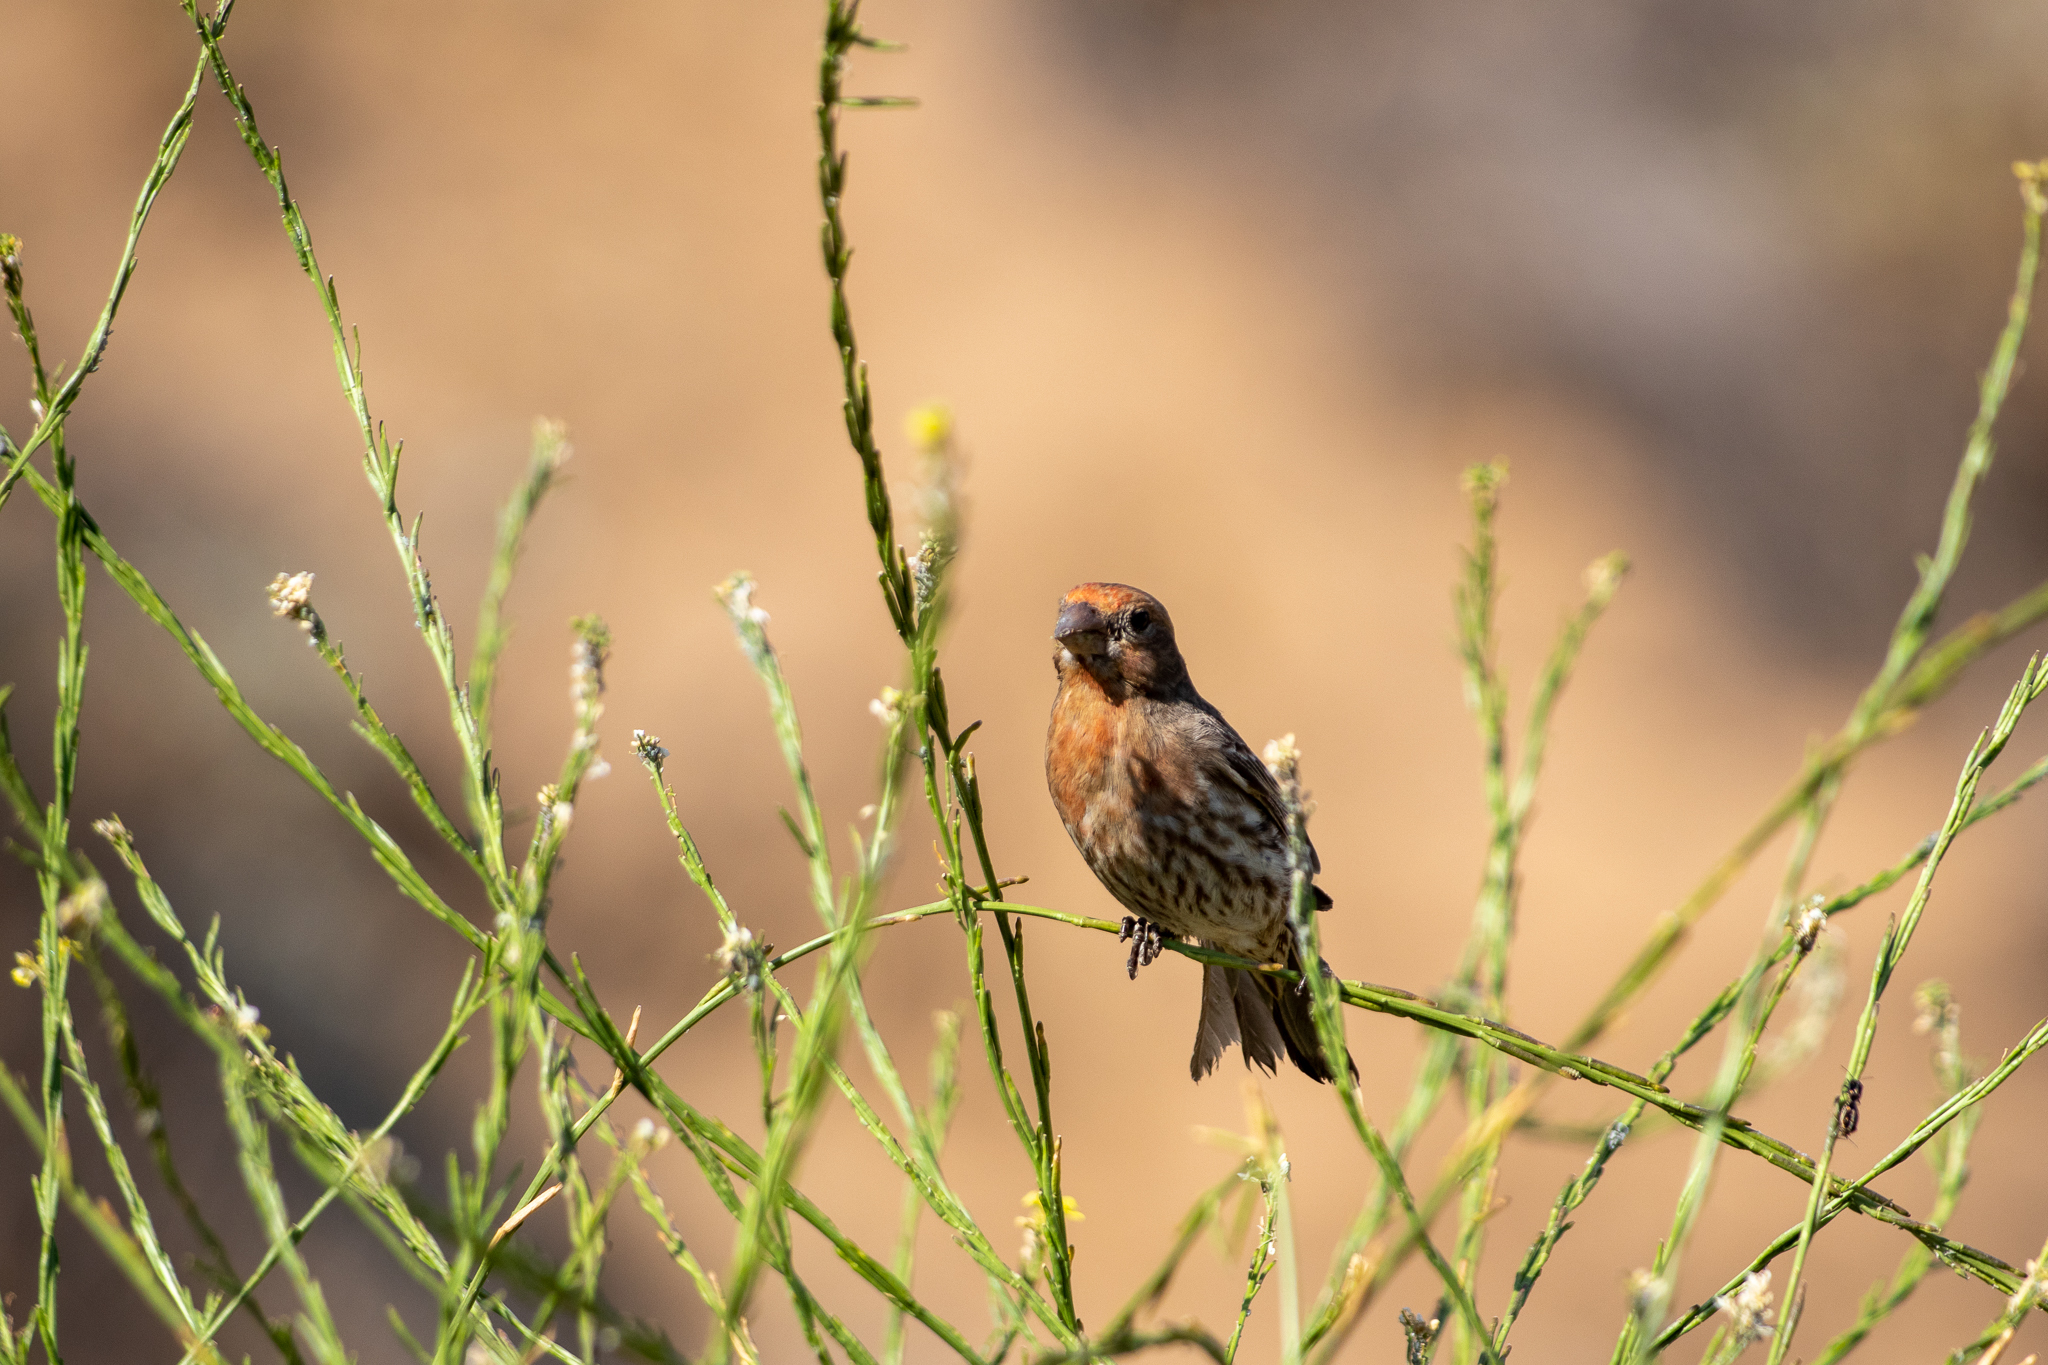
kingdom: Animalia
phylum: Chordata
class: Aves
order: Passeriformes
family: Fringillidae
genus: Haemorhous
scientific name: Haemorhous mexicanus
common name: House finch
